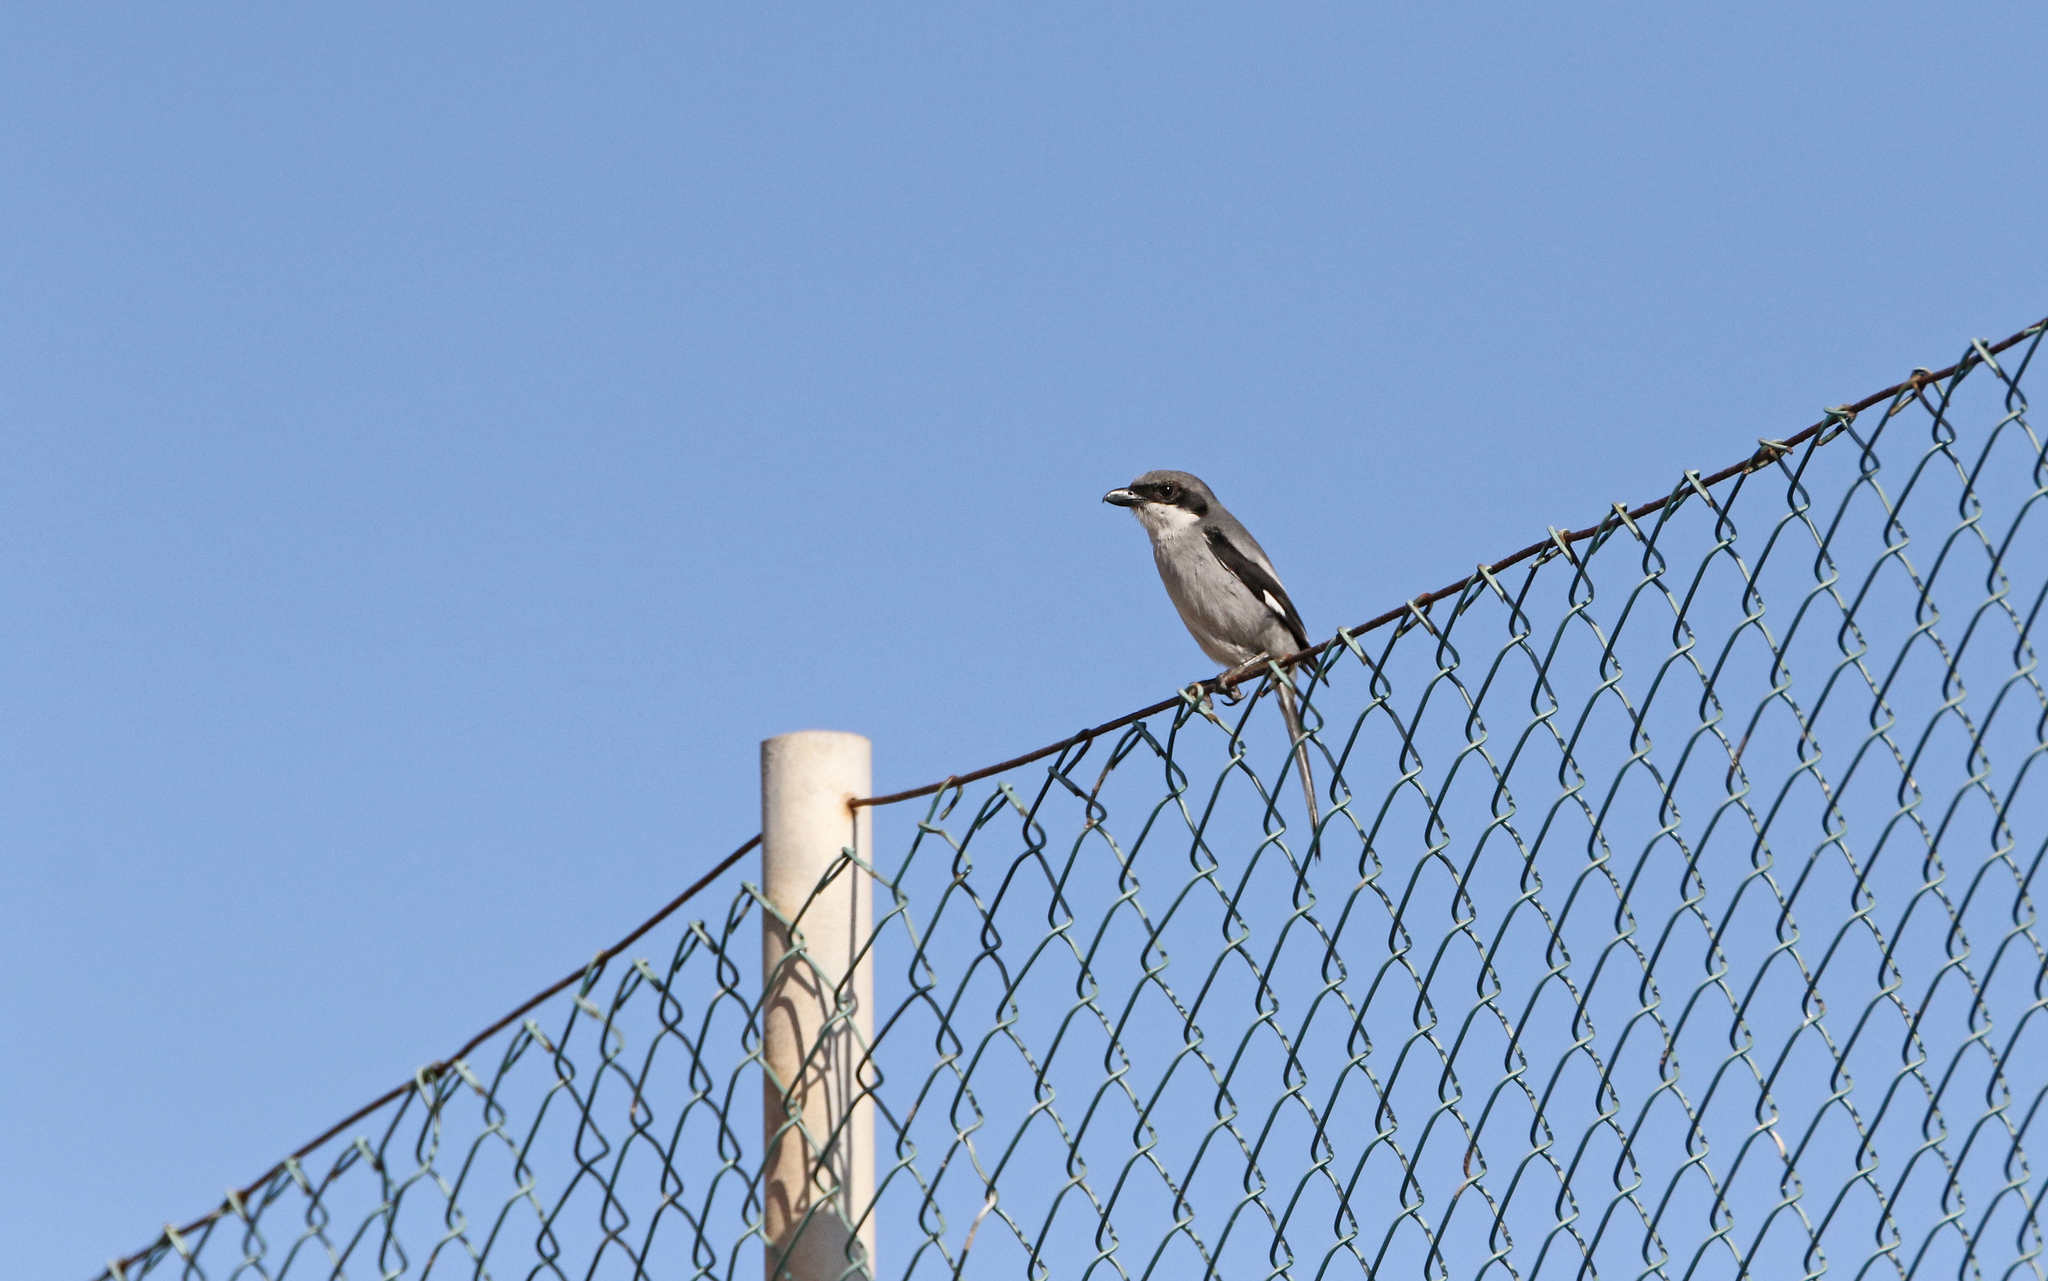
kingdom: Animalia
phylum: Chordata
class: Aves
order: Passeriformes
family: Laniidae
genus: Lanius
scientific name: Lanius excubitor
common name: Great grey shrike
